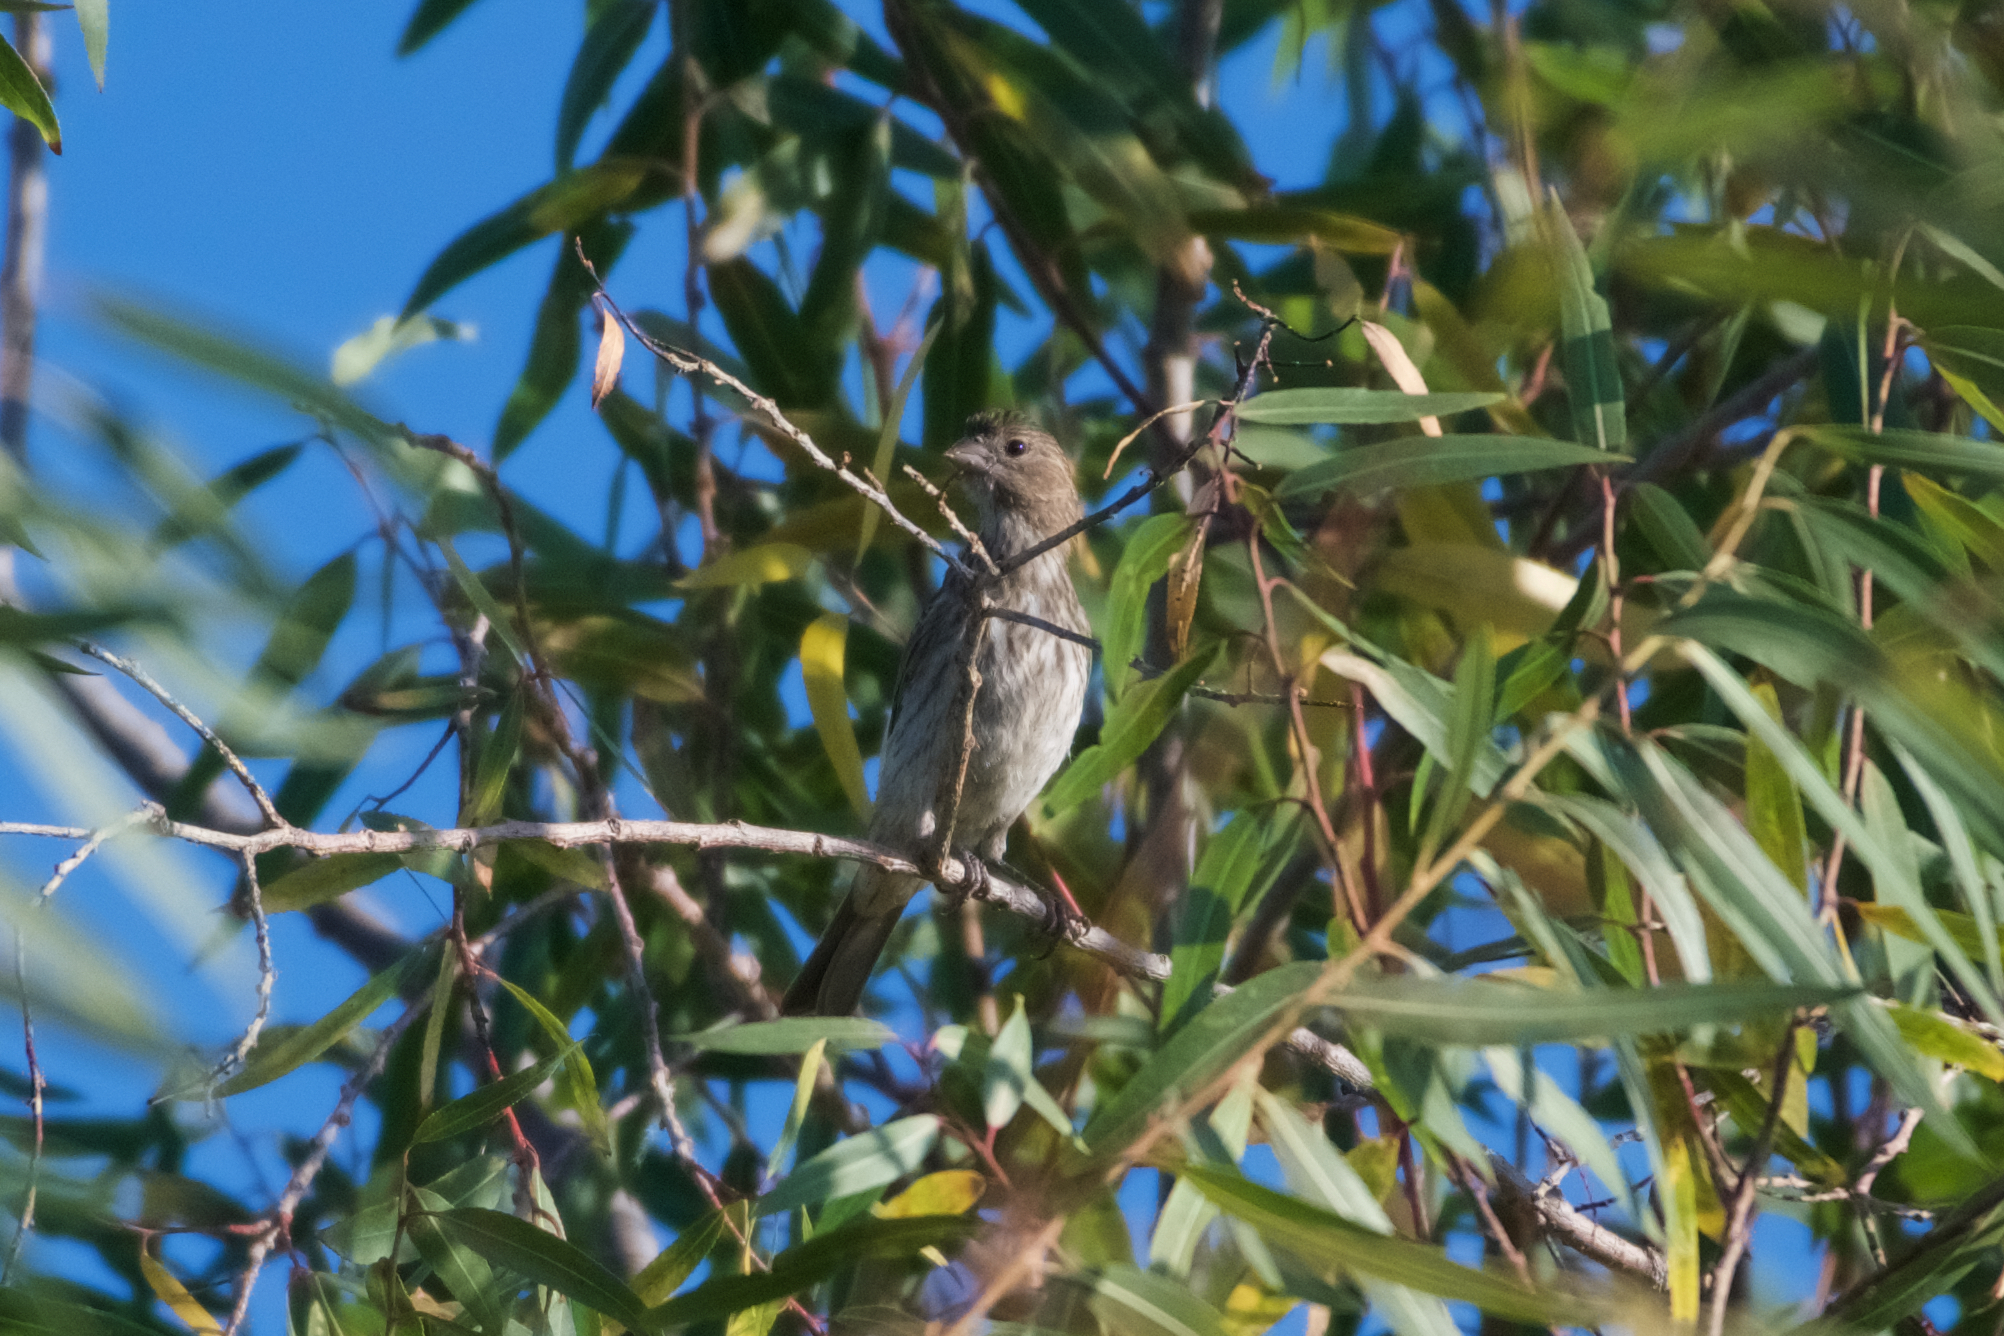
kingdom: Animalia
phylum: Chordata
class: Aves
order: Passeriformes
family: Fringillidae
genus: Haemorhous
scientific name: Haemorhous mexicanus
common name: House finch
